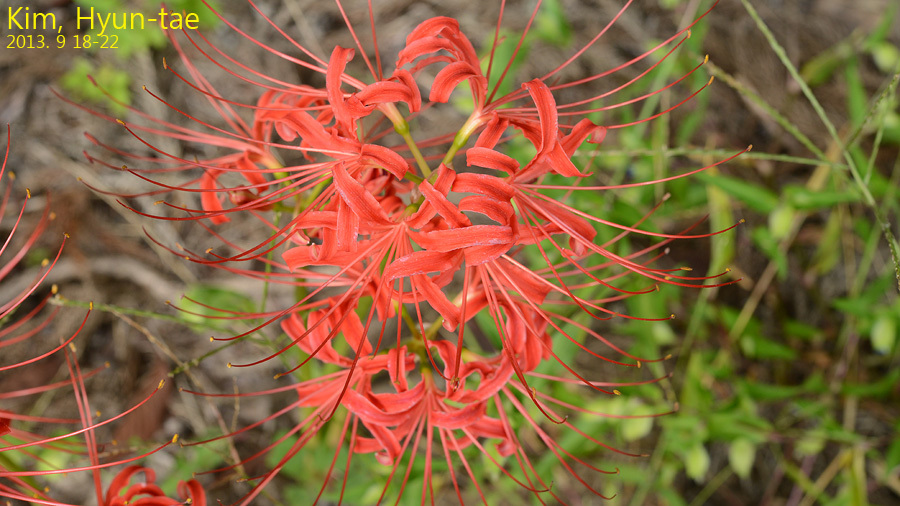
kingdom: Plantae
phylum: Tracheophyta
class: Liliopsida
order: Asparagales
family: Amaryllidaceae
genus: Lycoris
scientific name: Lycoris radiata
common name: Red spider lily
